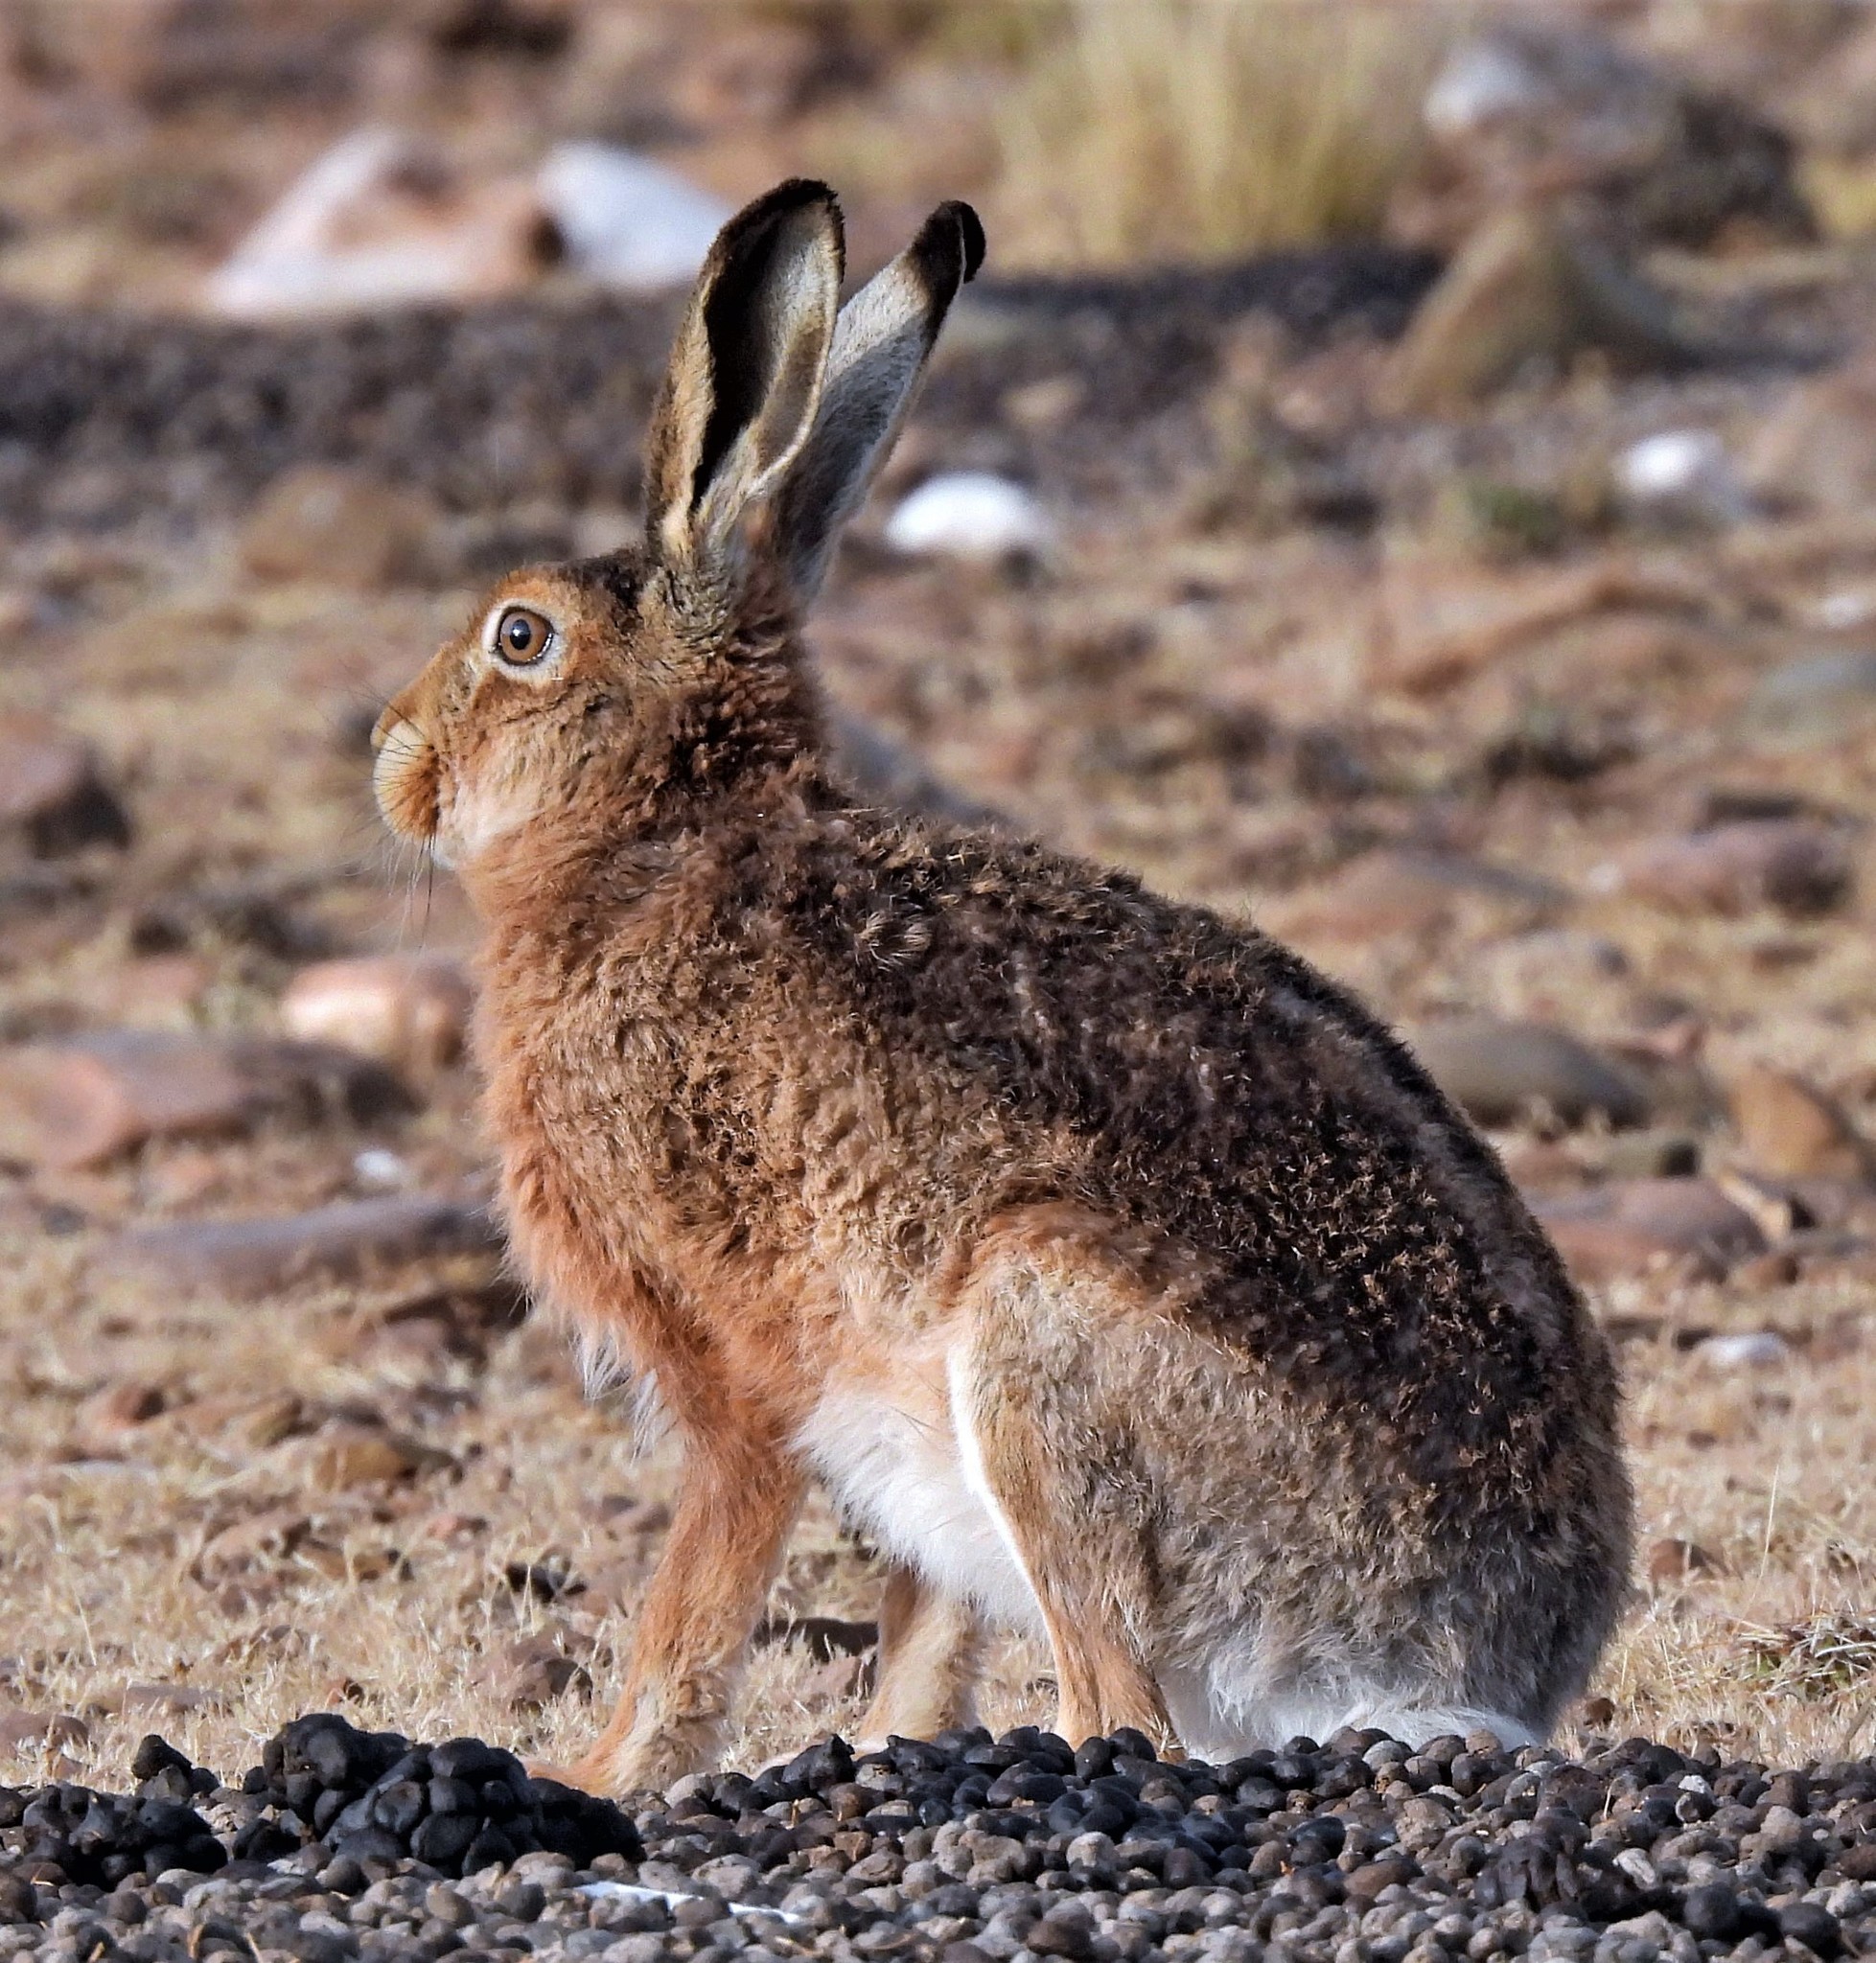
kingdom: Animalia
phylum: Chordata
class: Mammalia
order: Lagomorpha
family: Leporidae
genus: Lepus
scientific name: Lepus europaeus
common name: European hare
